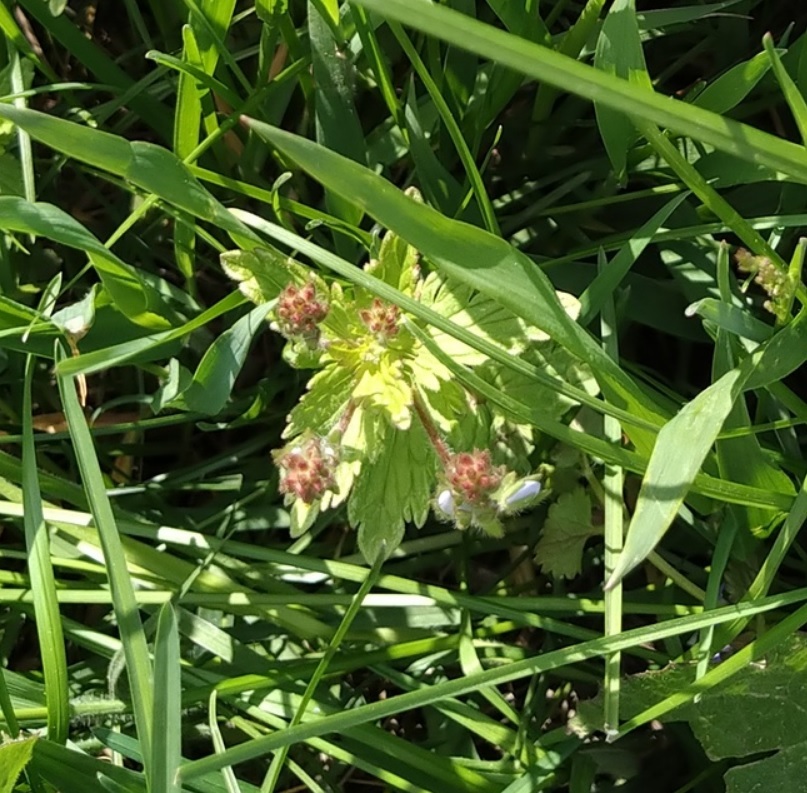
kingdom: Plantae
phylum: Tracheophyta
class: Magnoliopsida
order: Lamiales
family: Plantaginaceae
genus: Veronica
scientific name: Veronica chamaedrys
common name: Germander speedwell
